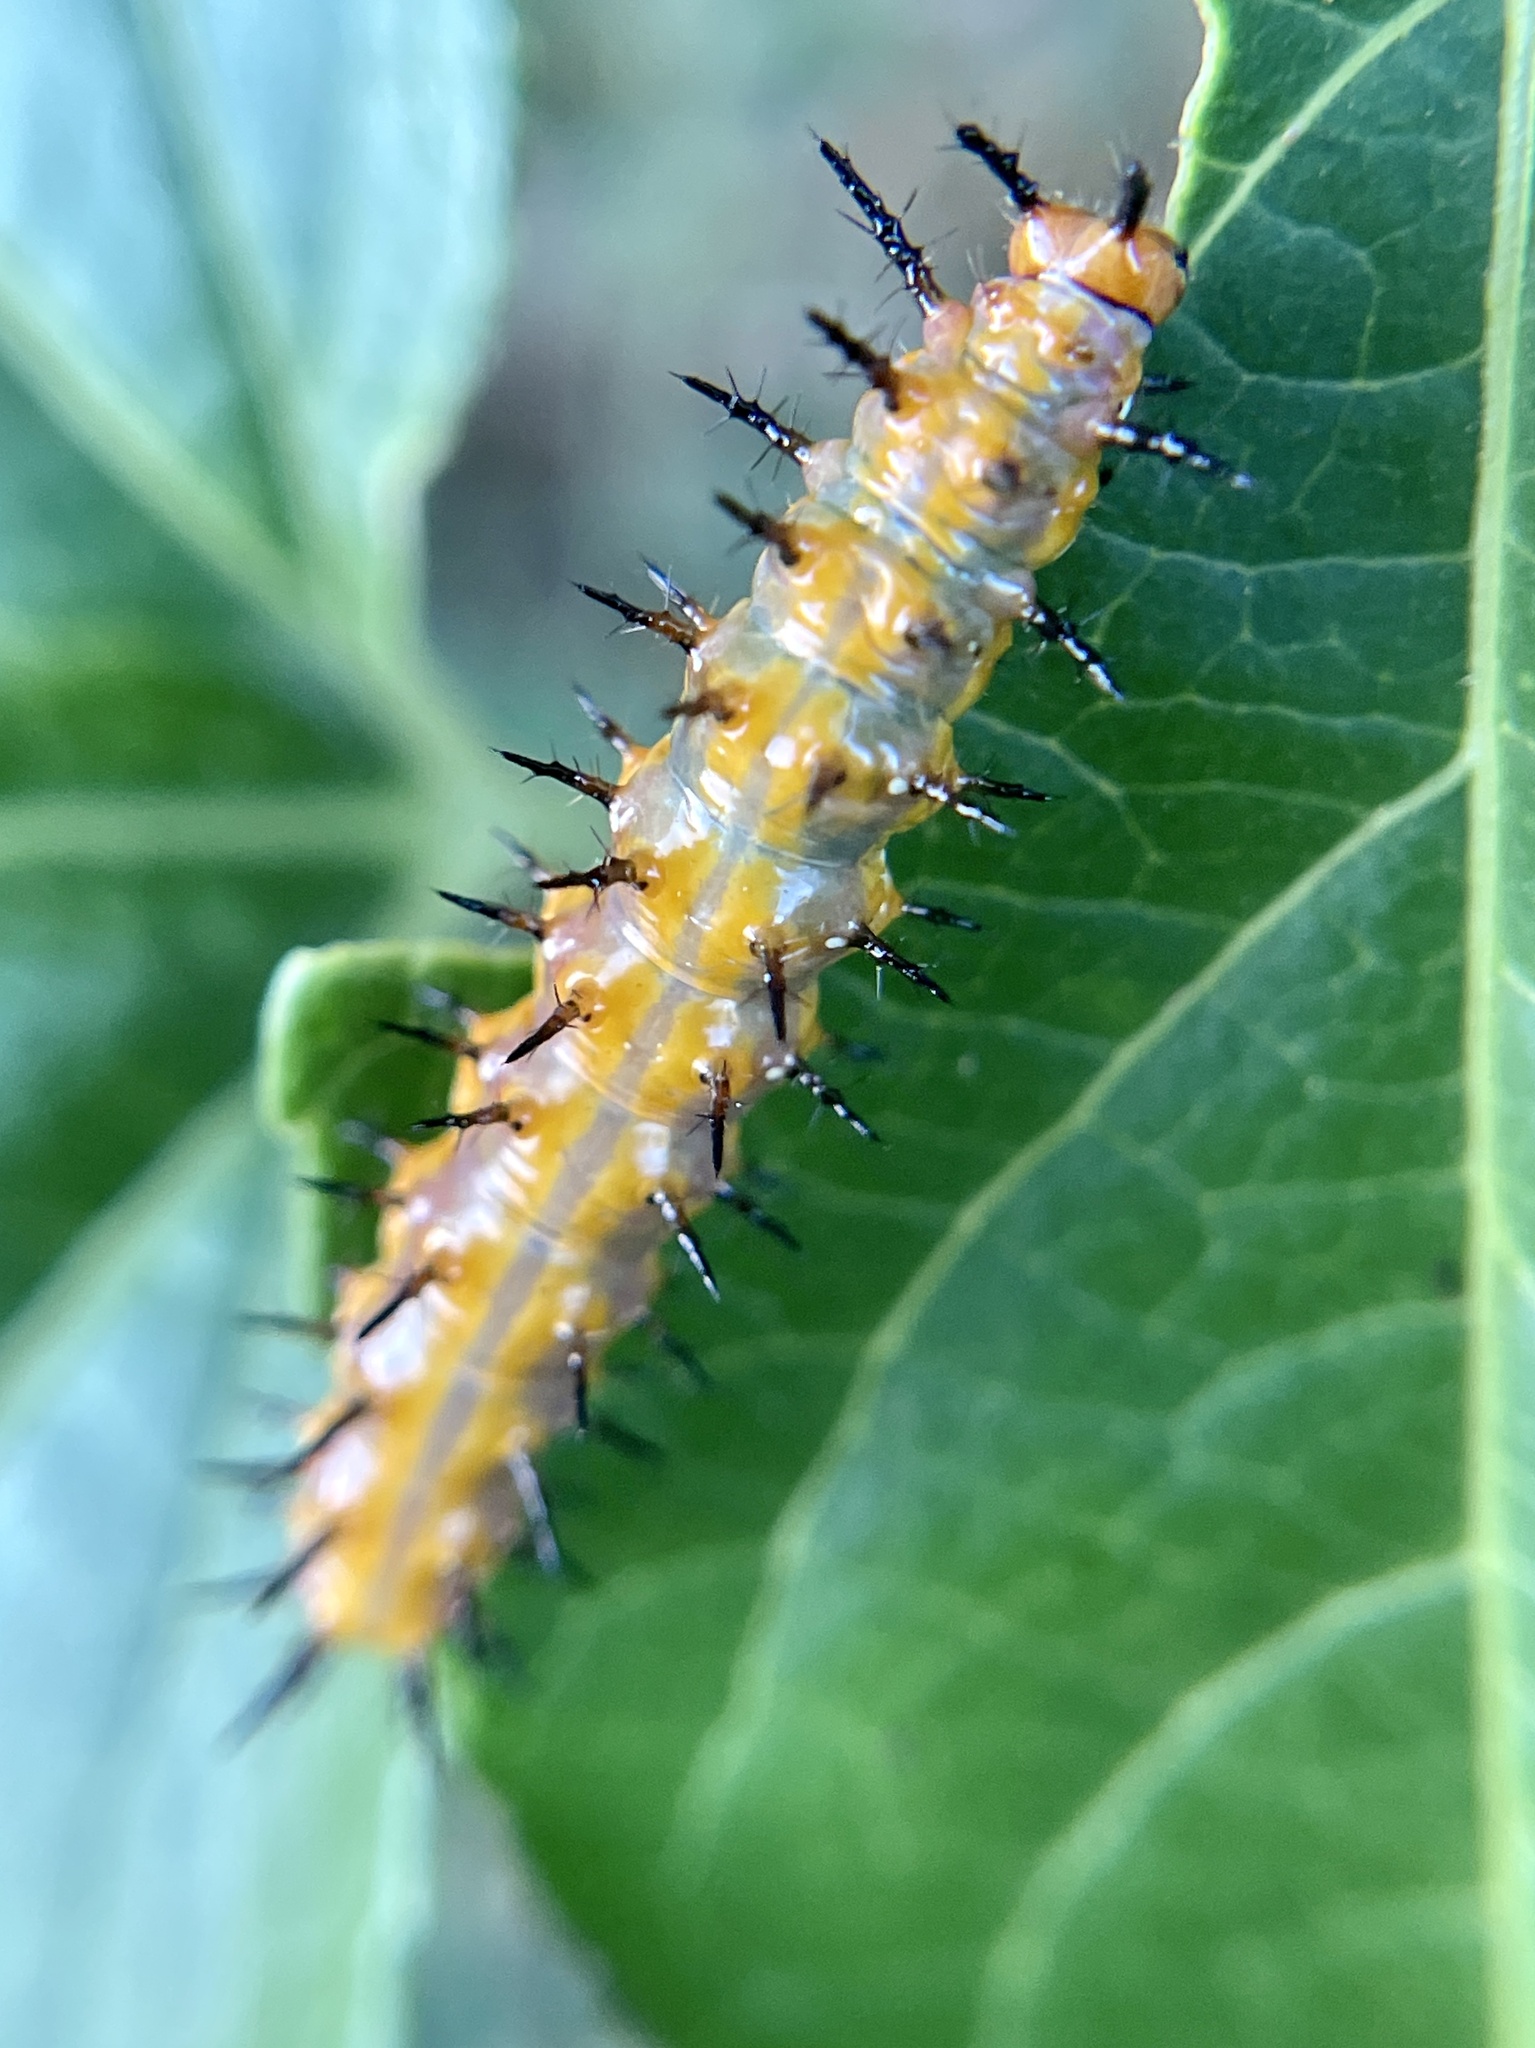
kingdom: Animalia
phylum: Arthropoda
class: Insecta
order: Lepidoptera
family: Nymphalidae
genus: Dione
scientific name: Dione vanillae
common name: Gulf fritillary
